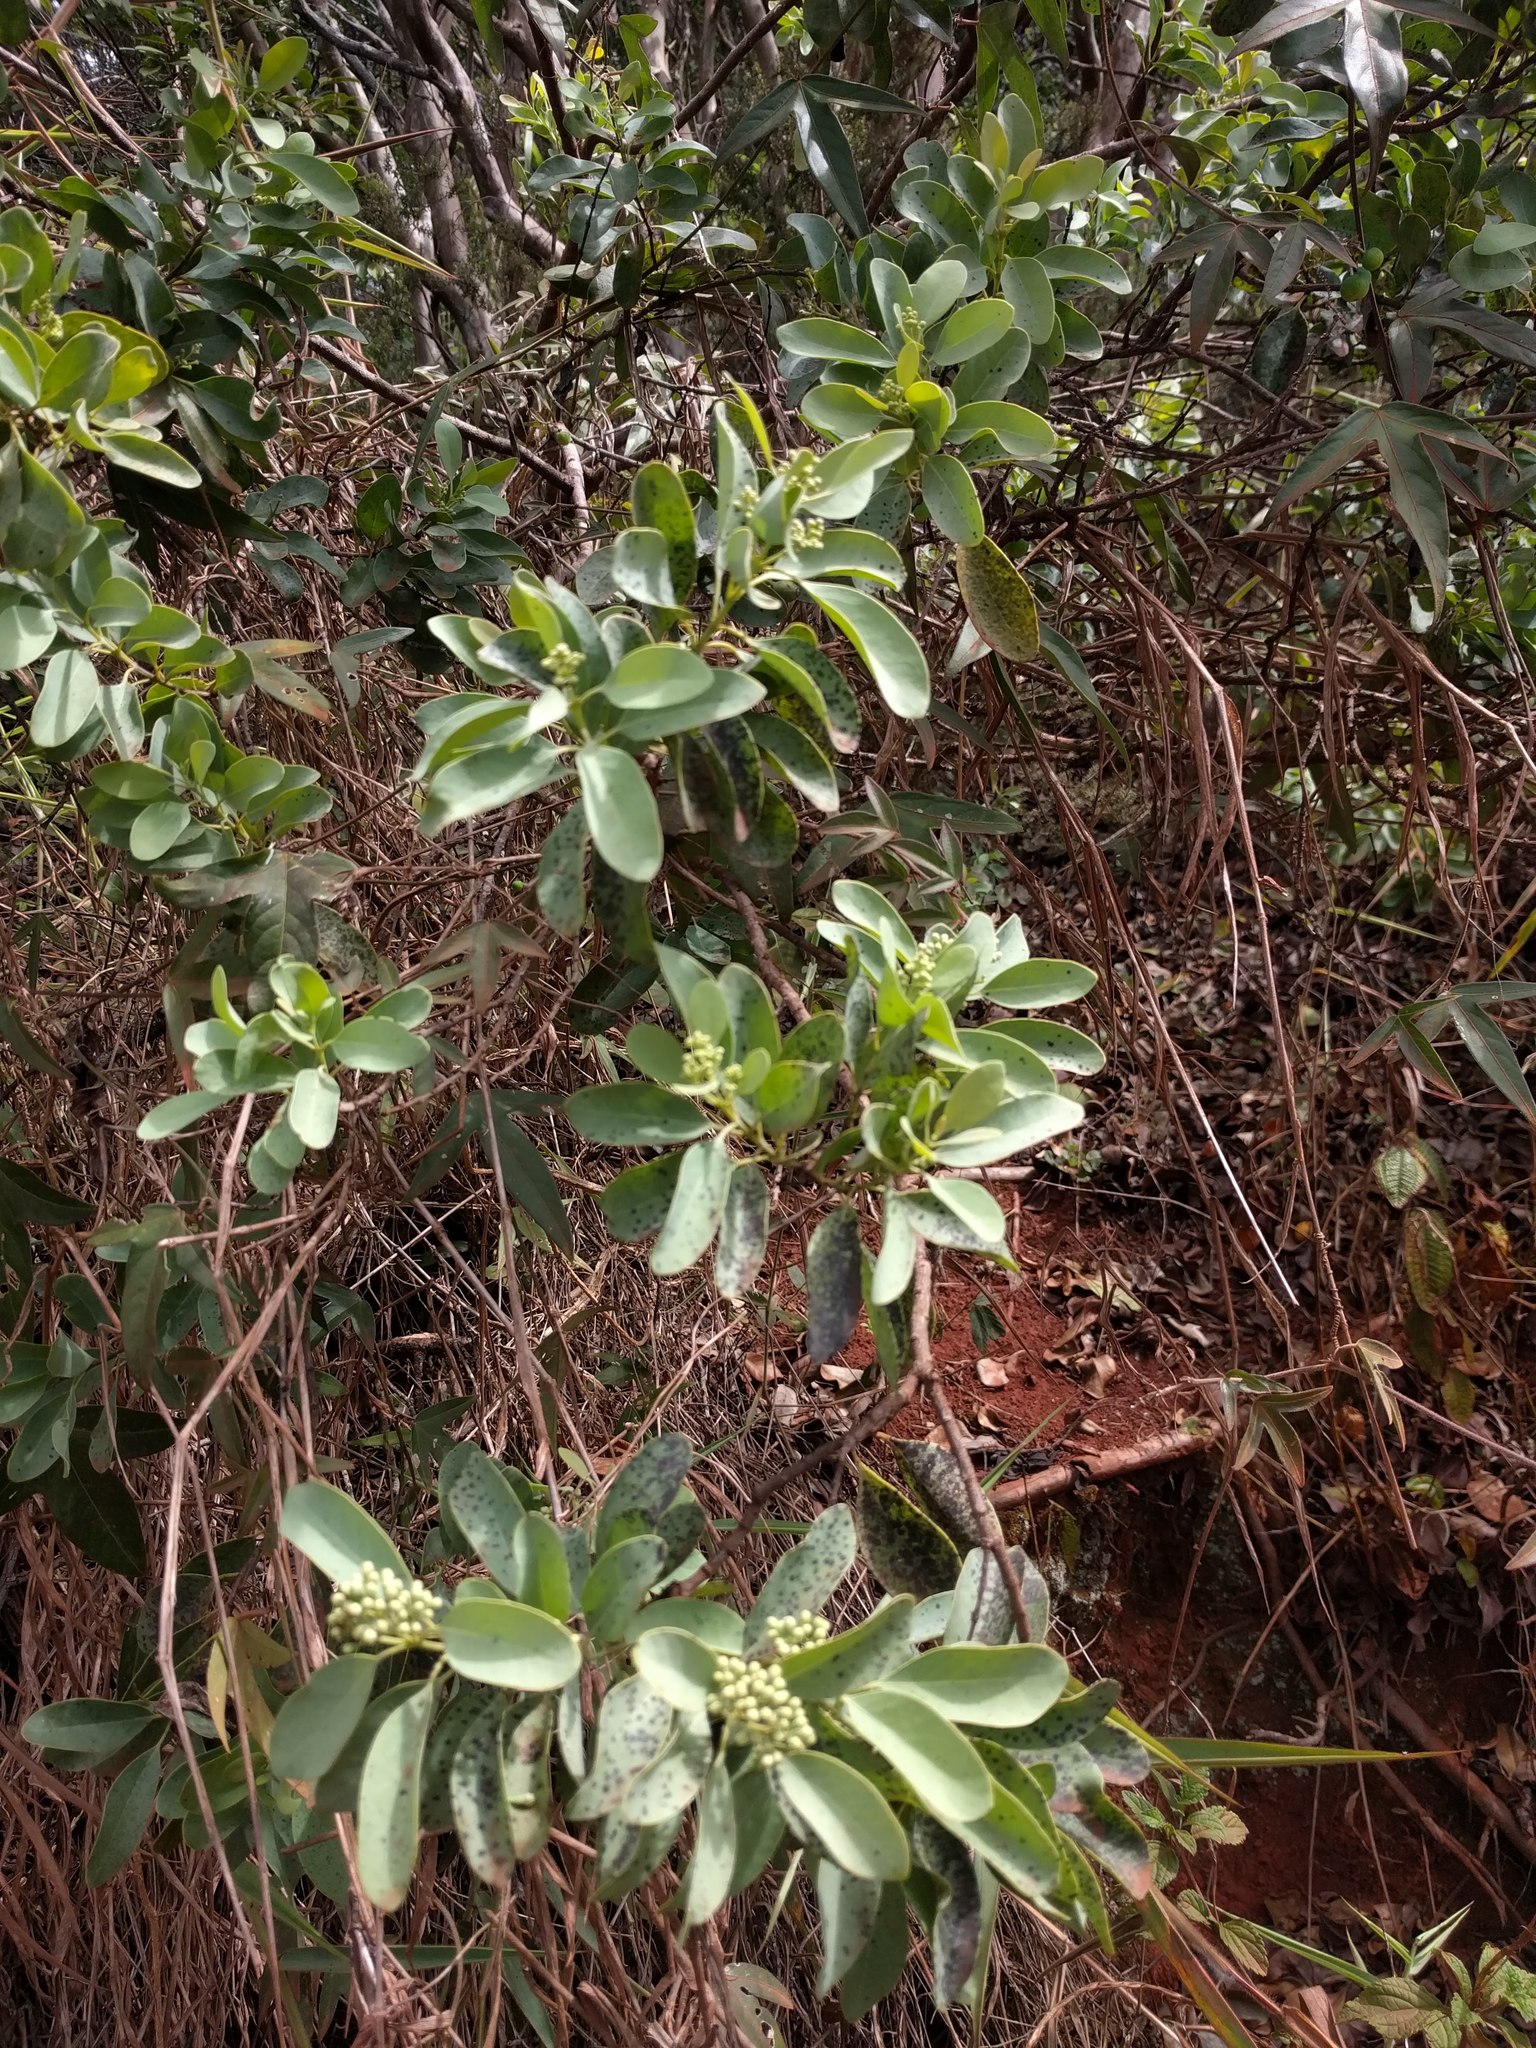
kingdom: Plantae
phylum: Tracheophyta
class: Magnoliopsida
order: Santalales
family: Santalaceae
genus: Santalum
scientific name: Santalum ellipticum
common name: Coast sandalwood
